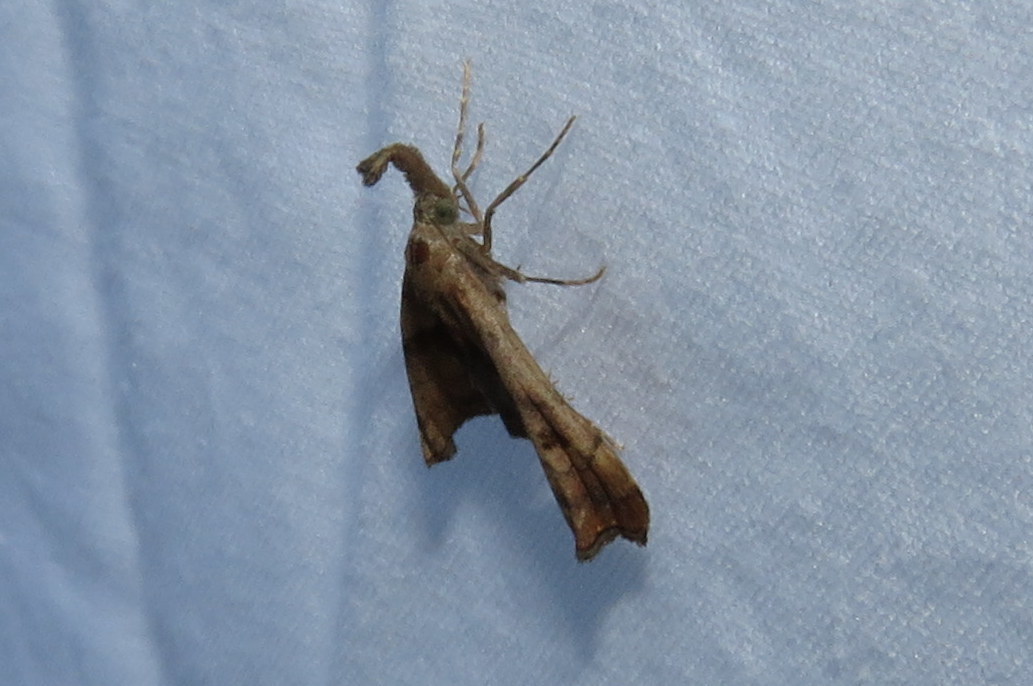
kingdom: Animalia
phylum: Arthropoda
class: Insecta
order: Lepidoptera
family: Erebidae
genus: Palthis
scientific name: Palthis angulalis
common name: Dark-spotted palthis moth
